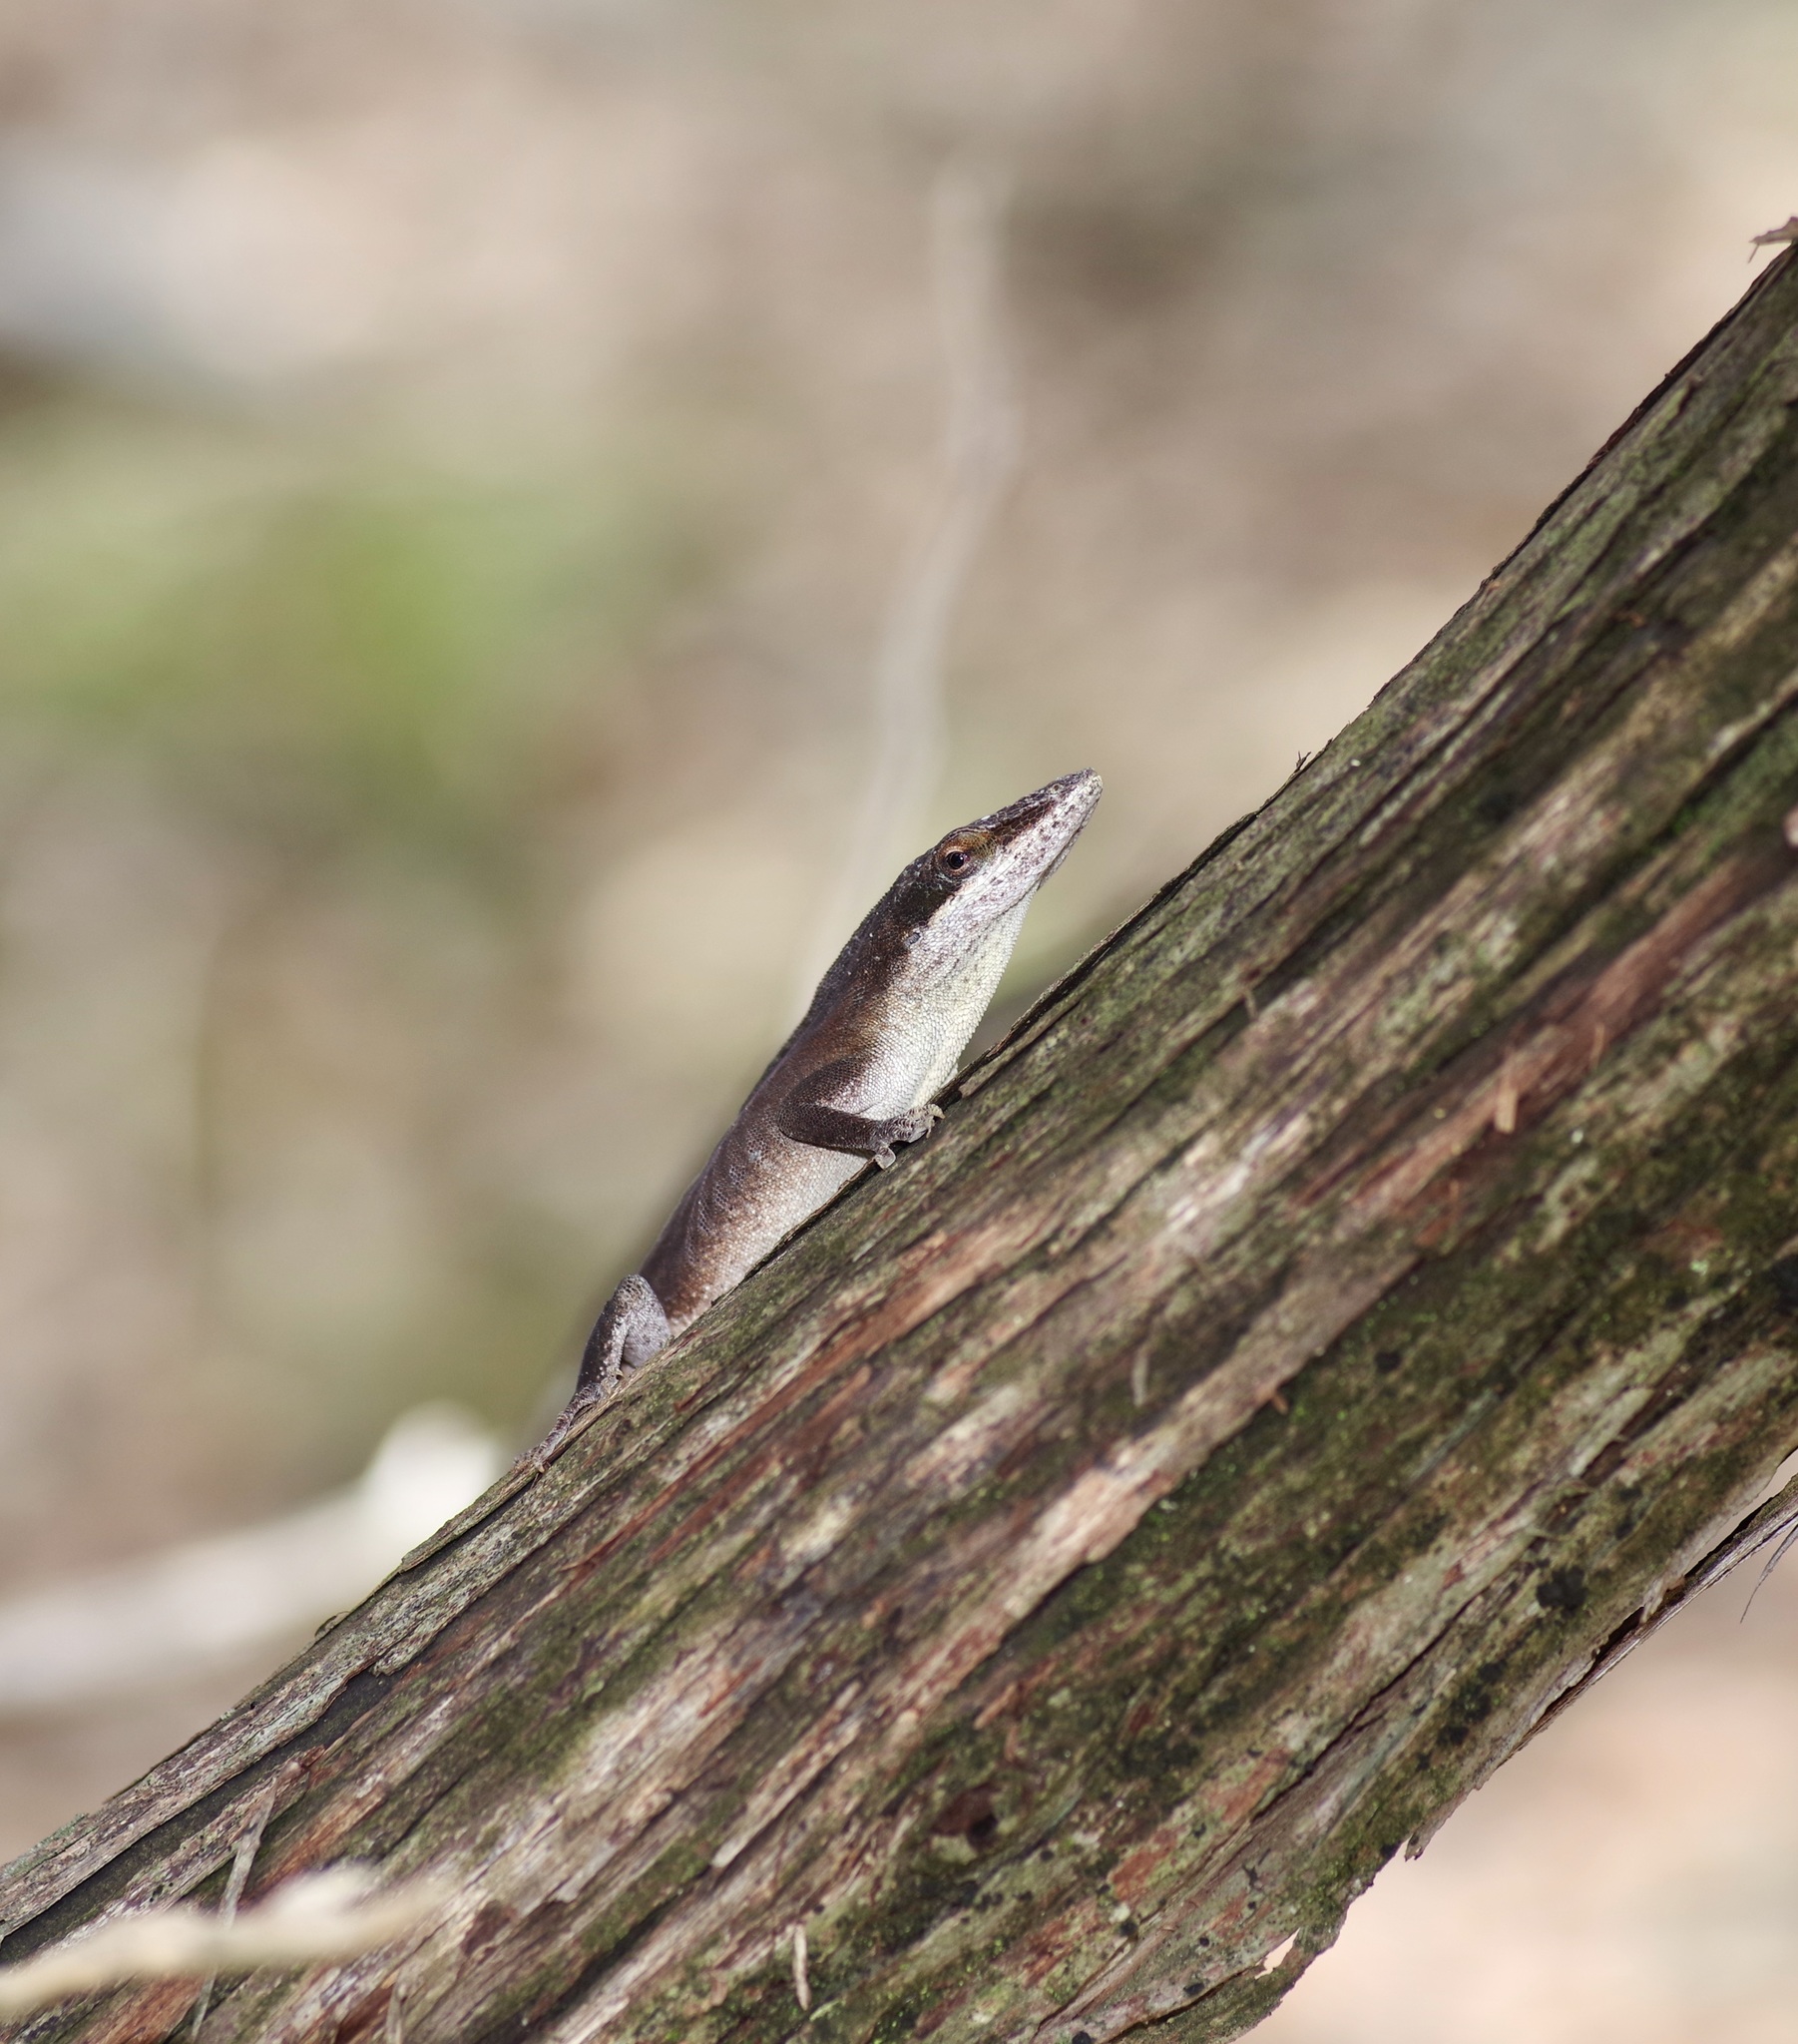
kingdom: Animalia
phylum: Chordata
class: Squamata
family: Dactyloidae
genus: Anolis
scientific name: Anolis carolinensis
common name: Green anole
